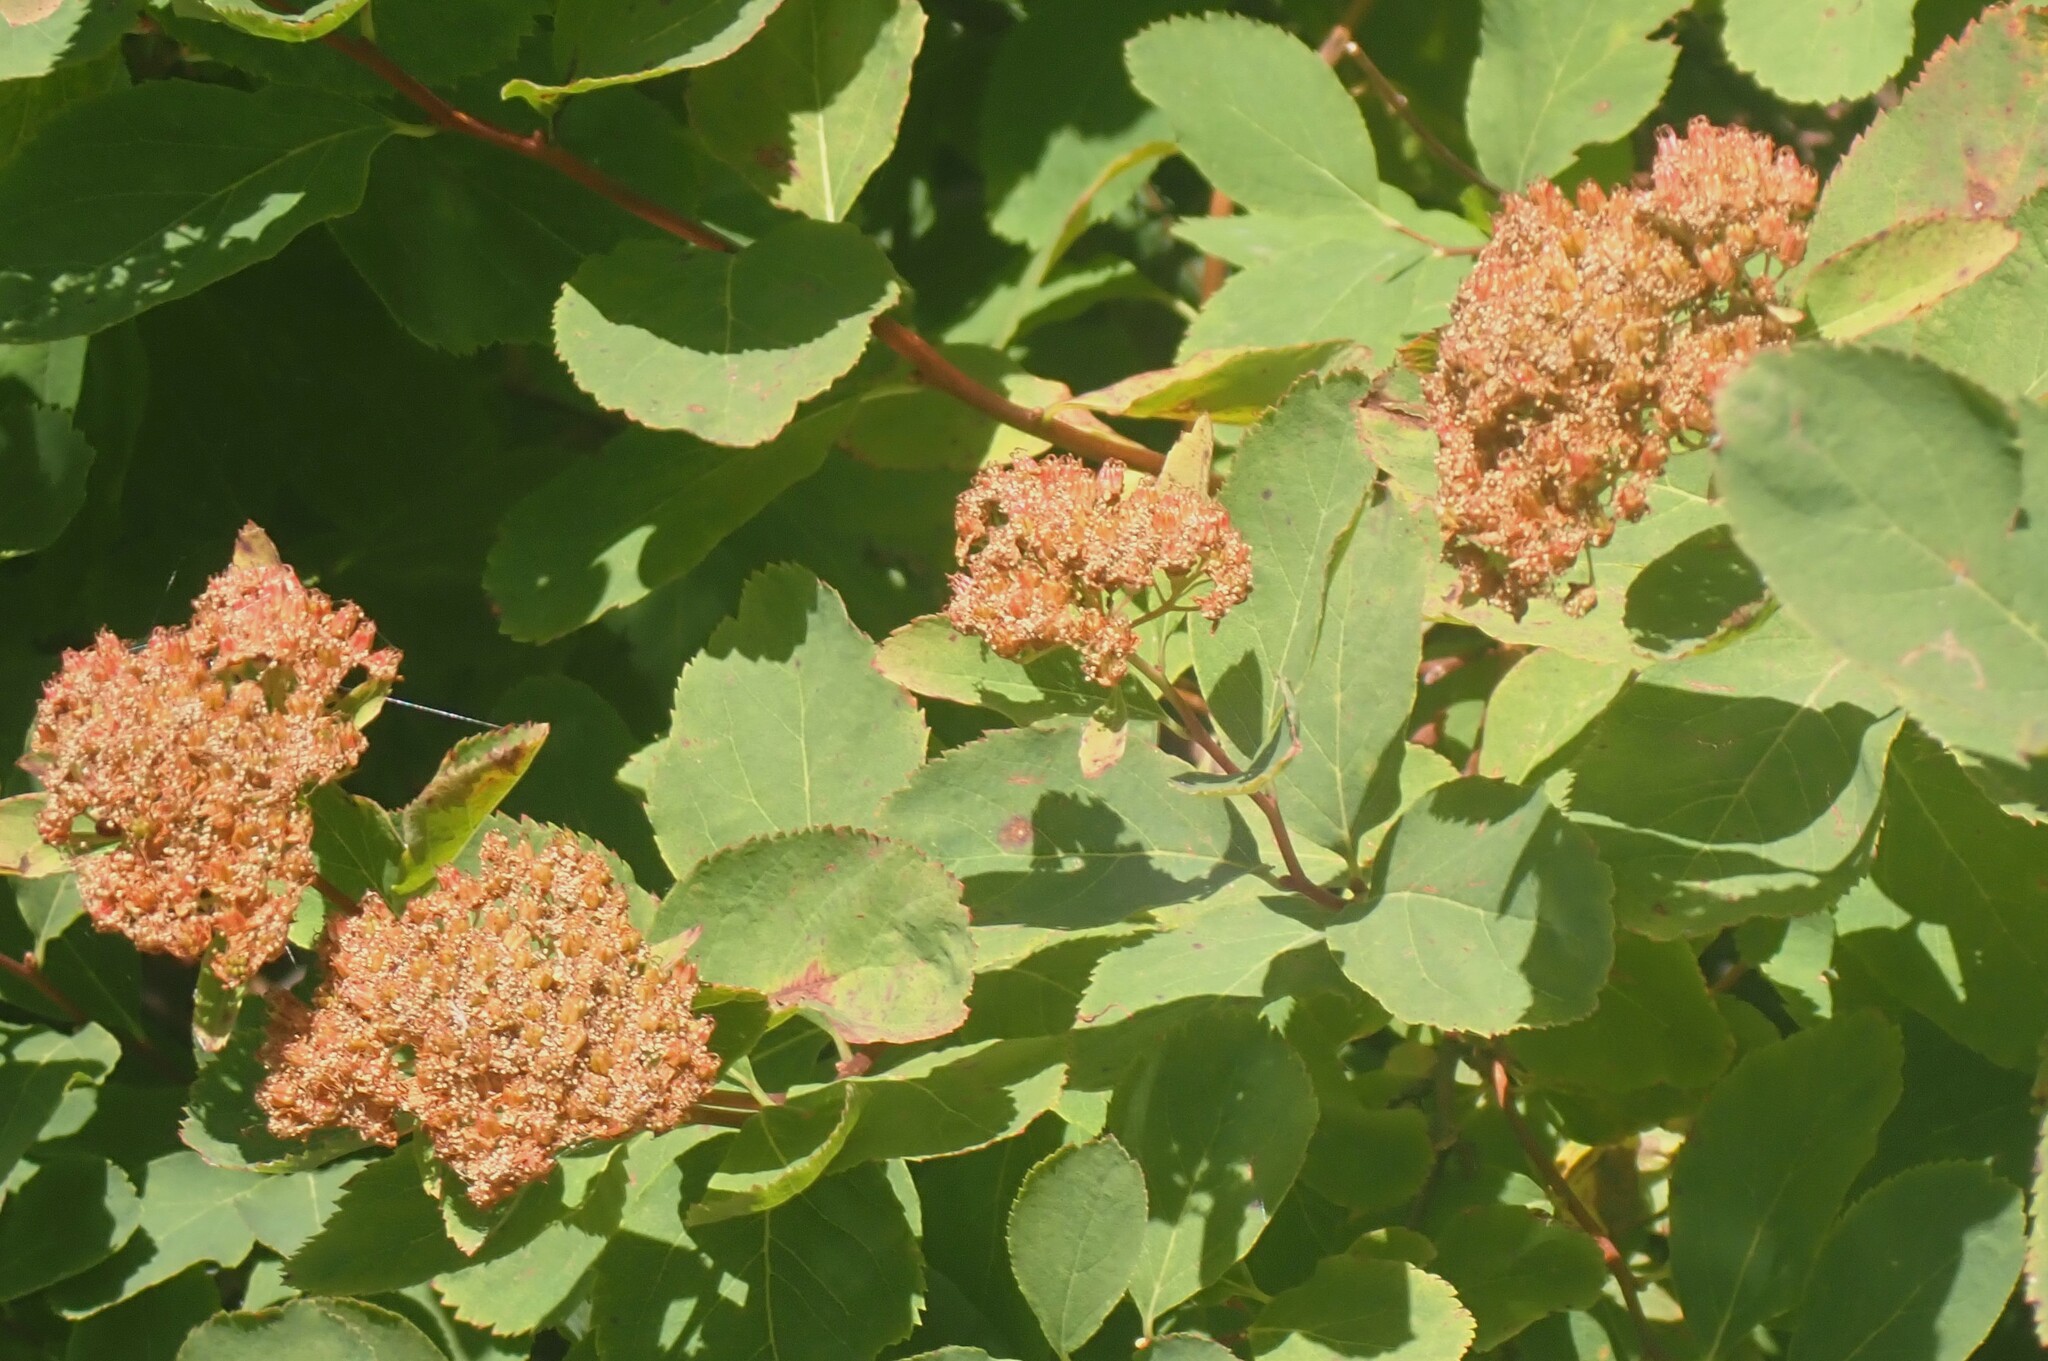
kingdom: Plantae
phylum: Tracheophyta
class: Magnoliopsida
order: Rosales
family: Rosaceae
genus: Spiraea
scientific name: Spiraea lucida
